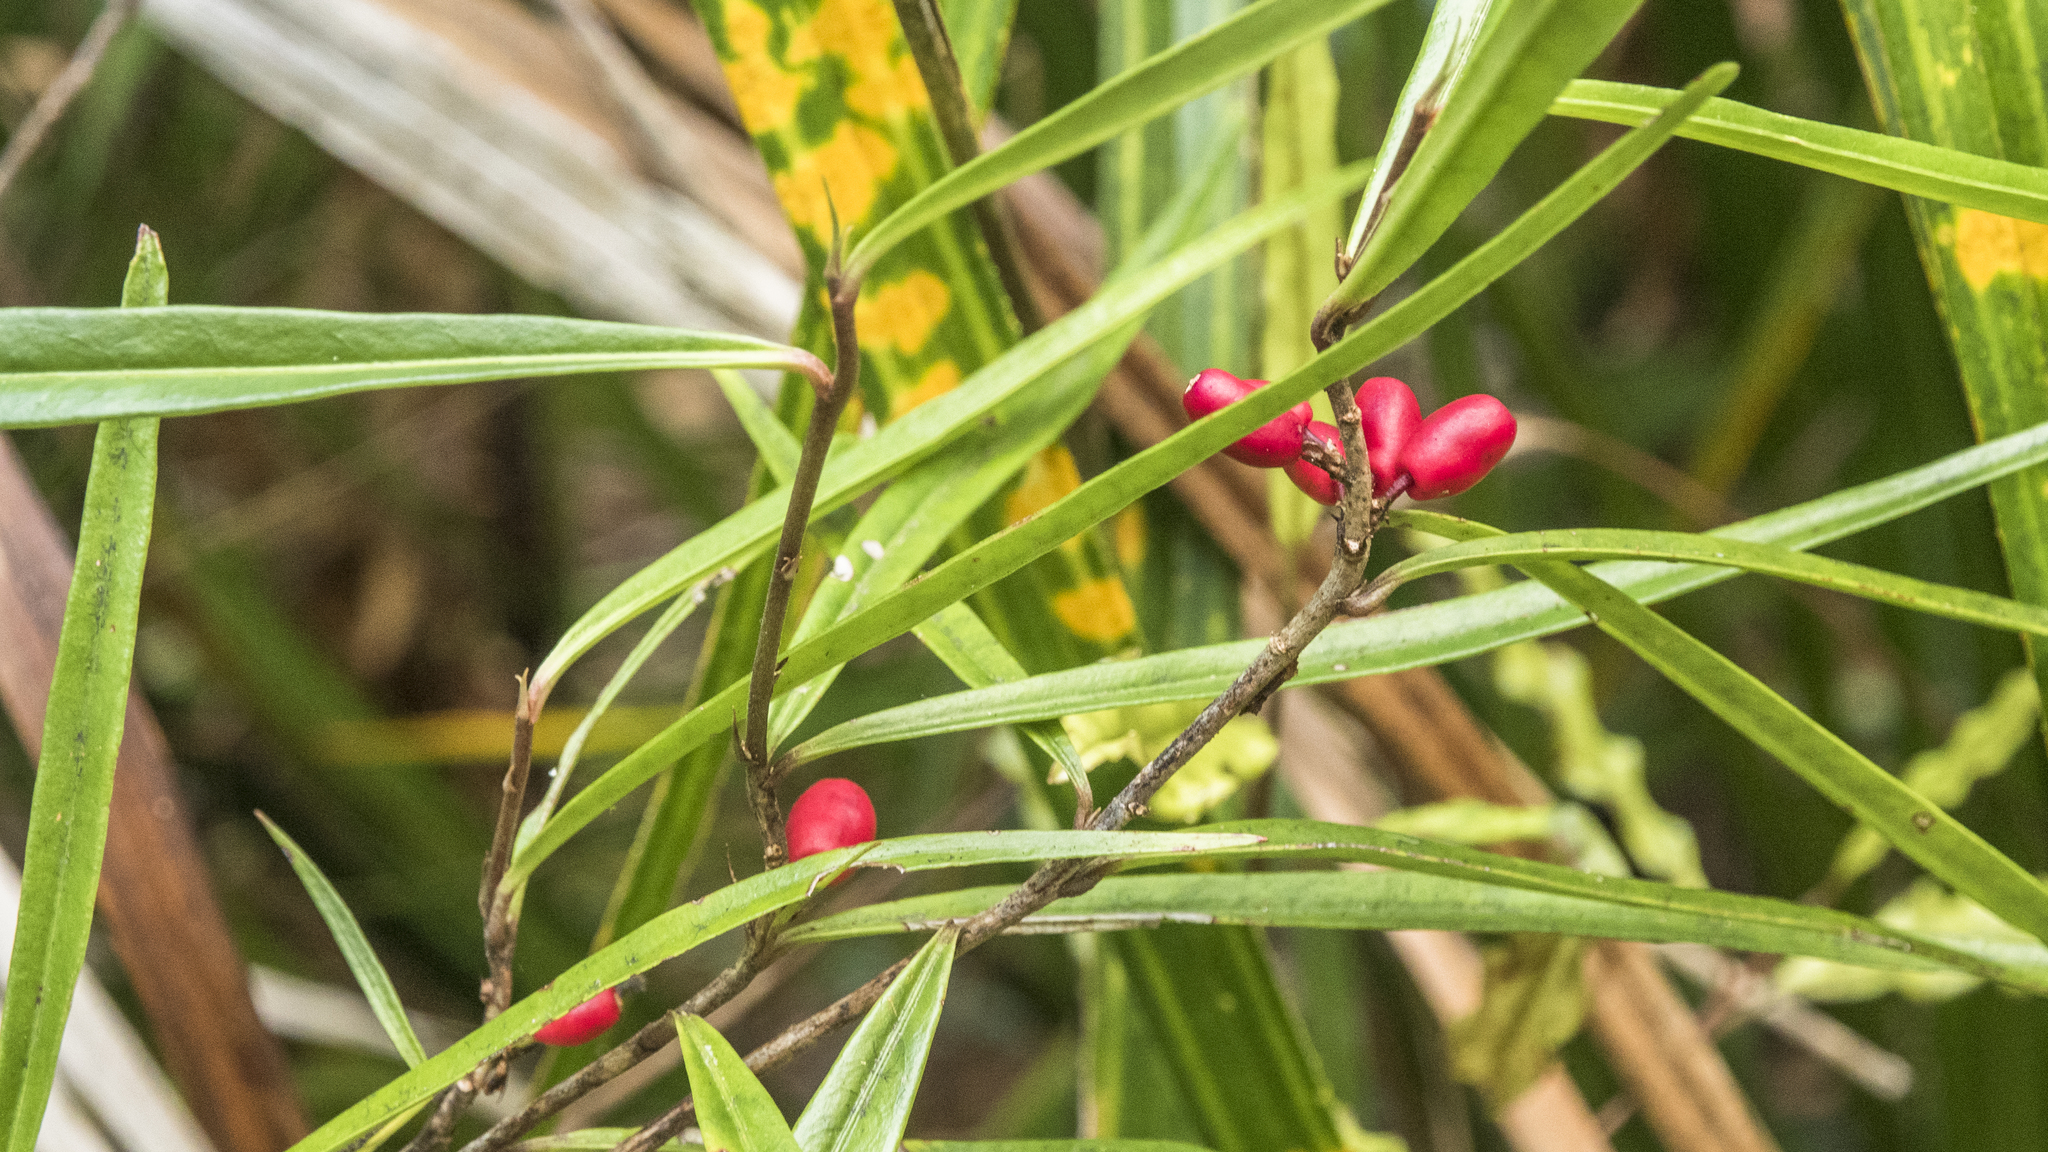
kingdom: Plantae
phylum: Tracheophyta
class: Magnoliopsida
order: Asterales
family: Alseuosmiaceae
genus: Alseuosmia
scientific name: Alseuosmia banksii
